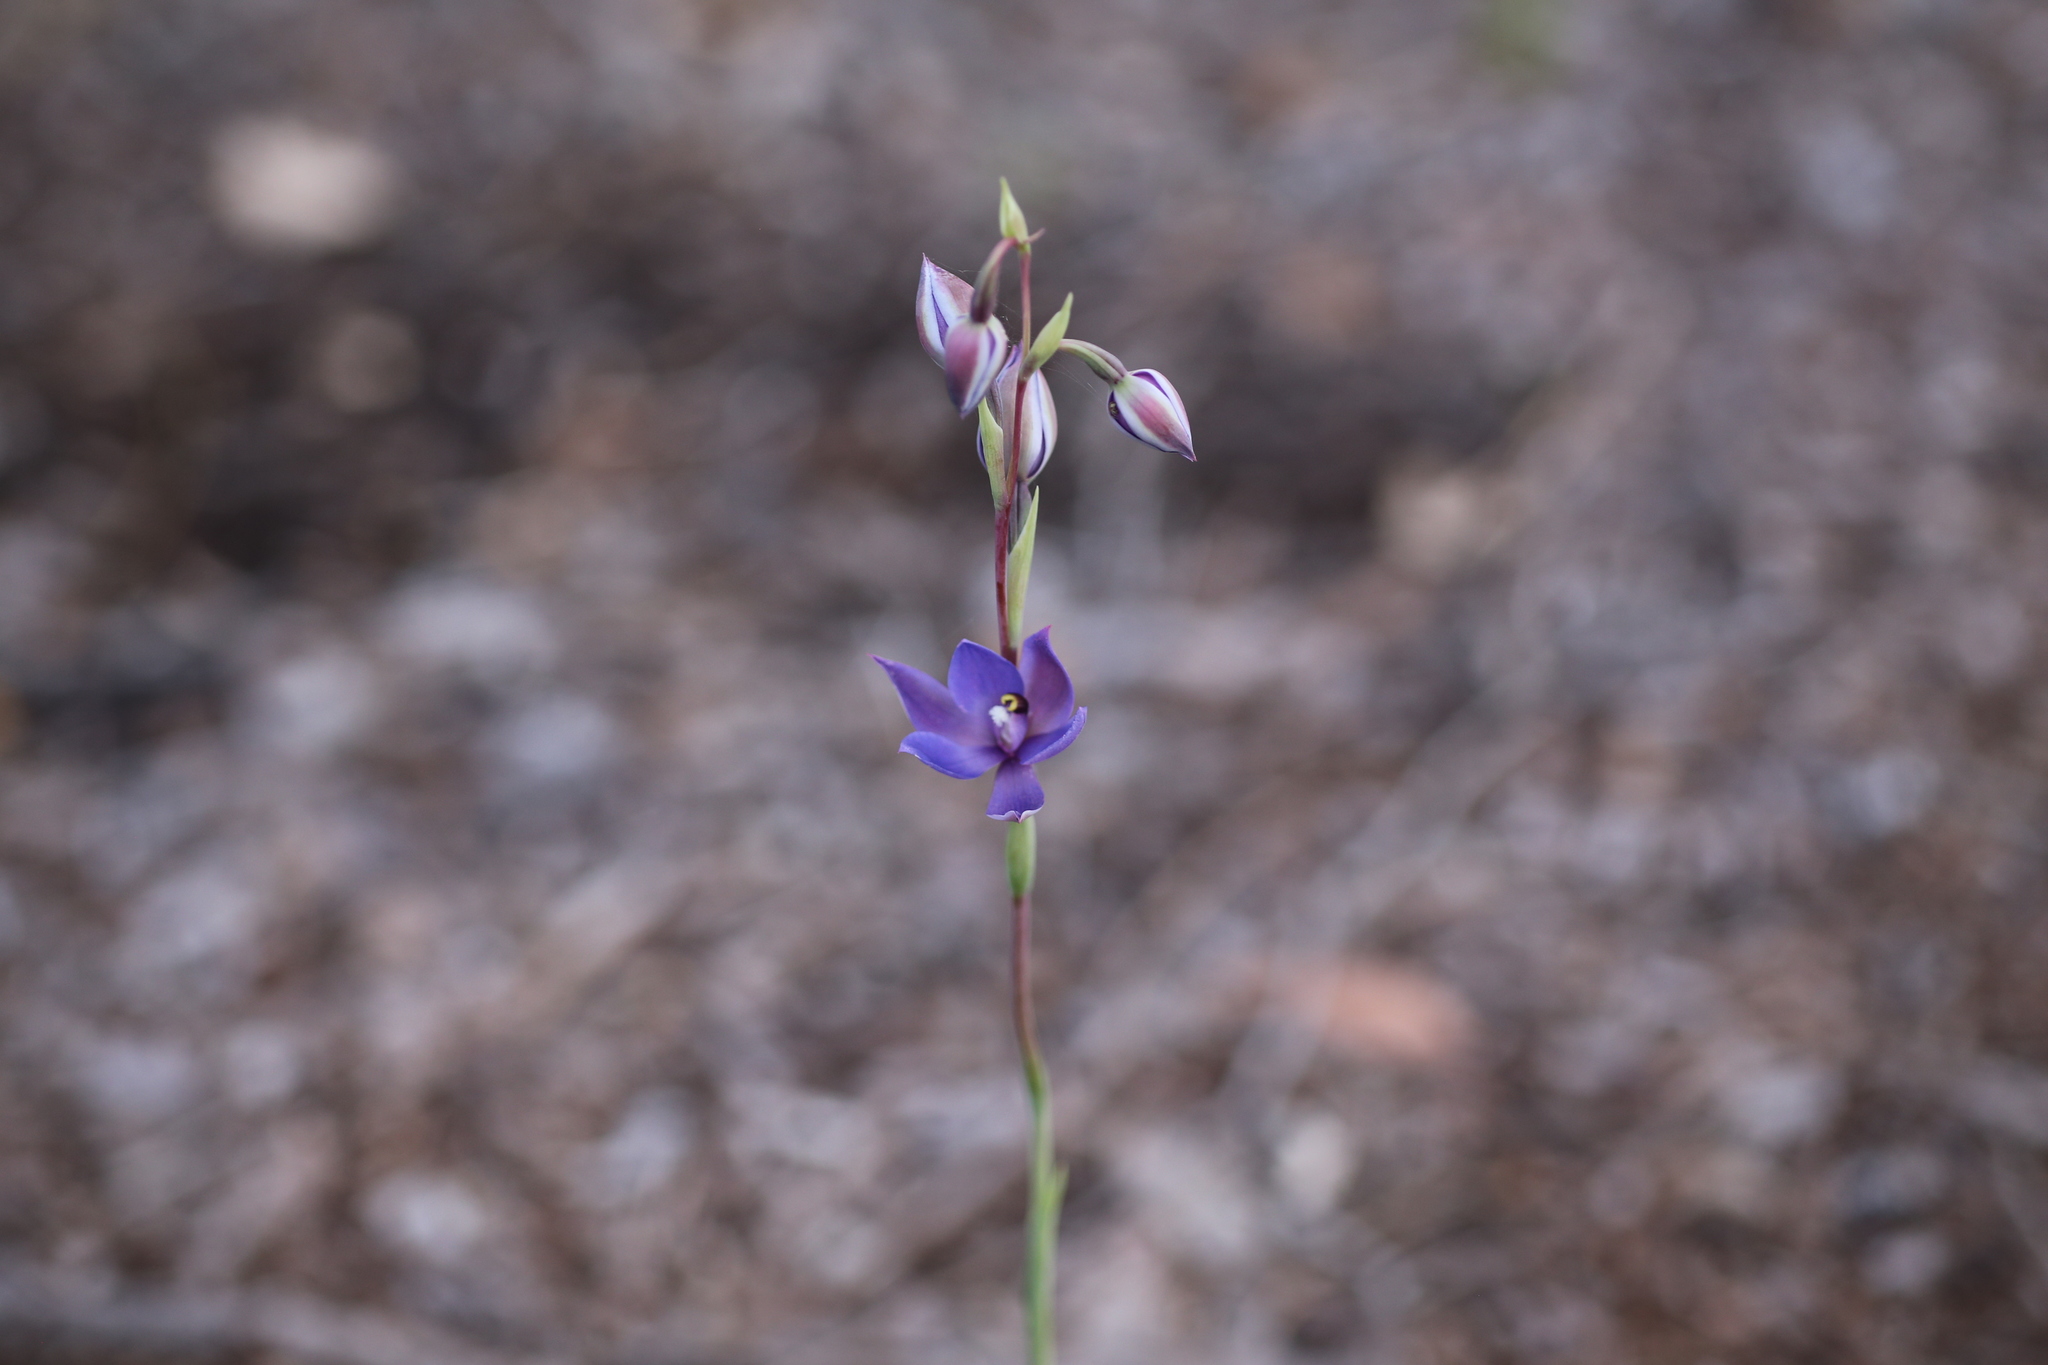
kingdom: Plantae
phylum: Tracheophyta
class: Liliopsida
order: Asparagales
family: Orchidaceae
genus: Thelymitra
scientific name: Thelymitra graminea
